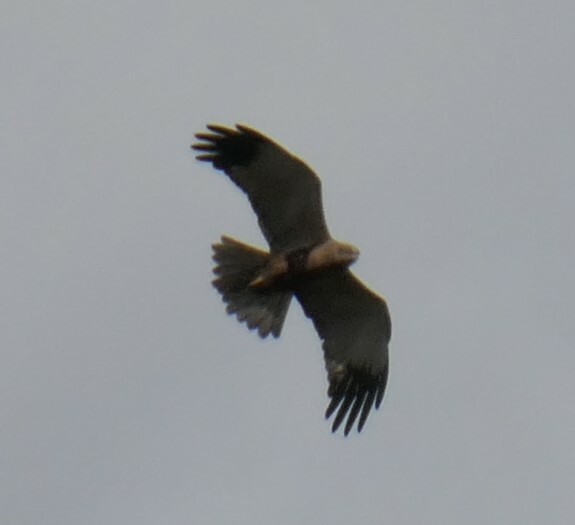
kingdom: Animalia
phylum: Chordata
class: Aves
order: Accipitriformes
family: Accipitridae
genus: Circus
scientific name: Circus aeruginosus
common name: Western marsh harrier
